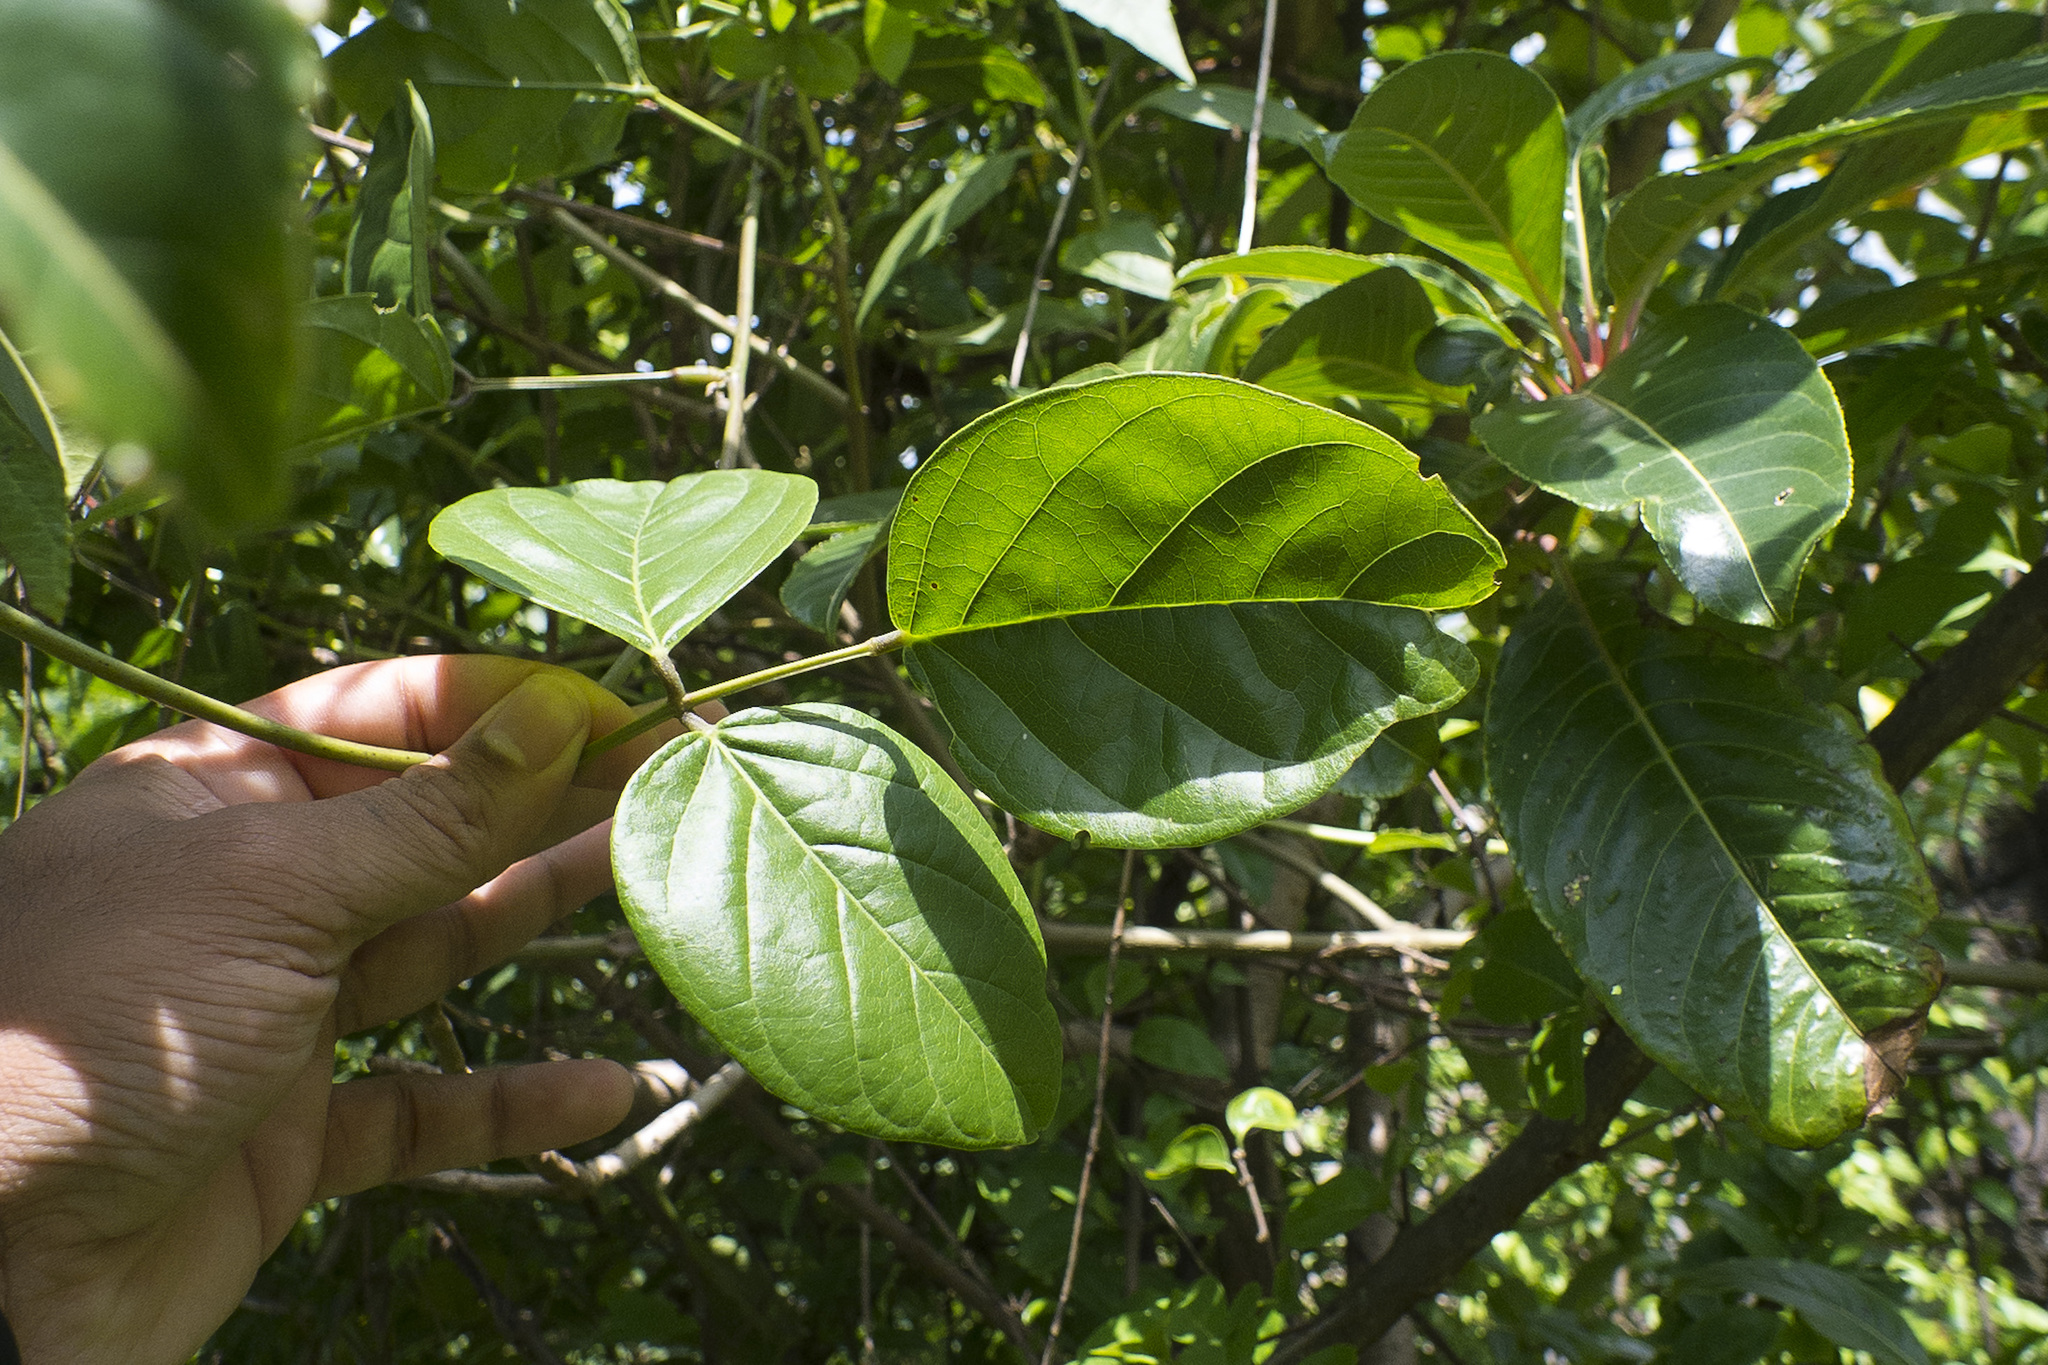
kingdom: Plantae
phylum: Tracheophyta
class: Magnoliopsida
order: Fabales
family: Fabaceae
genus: Canavalia
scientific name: Canavalia gladiata
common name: Scimitar-bean
